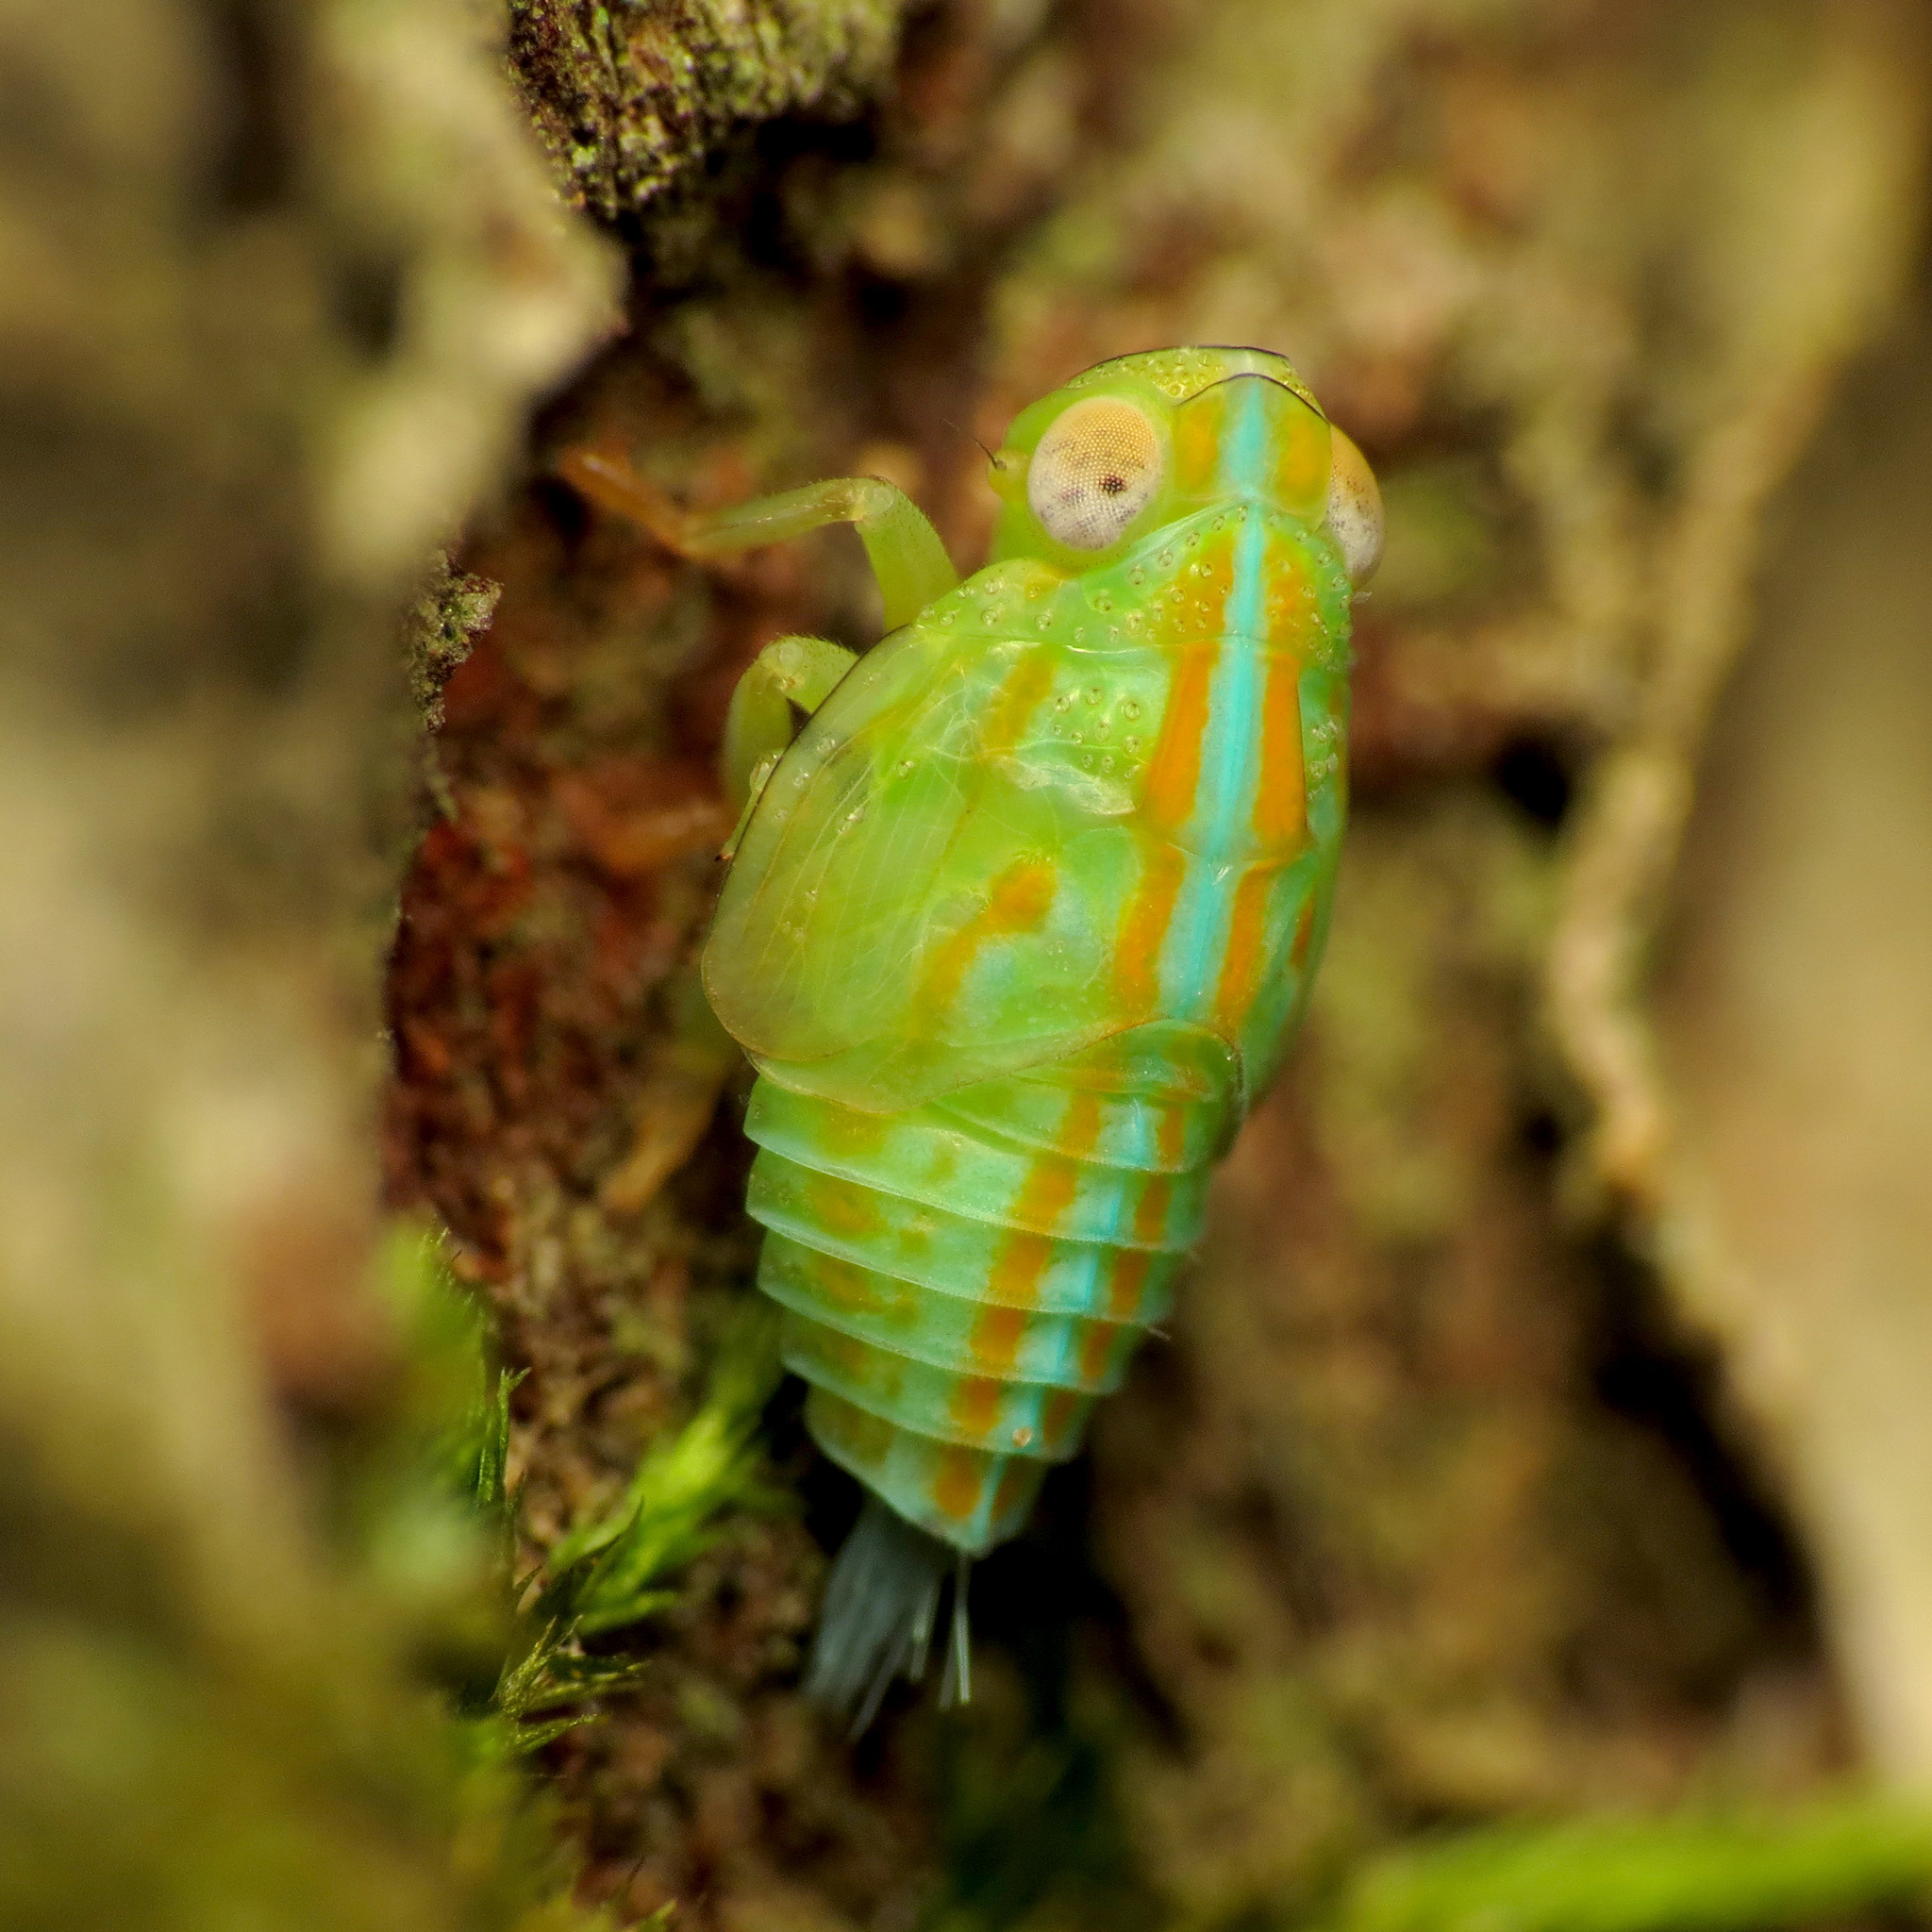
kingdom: Animalia
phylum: Arthropoda
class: Insecta
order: Hemiptera
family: Issidae
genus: Aplos
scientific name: Aplos simplex
